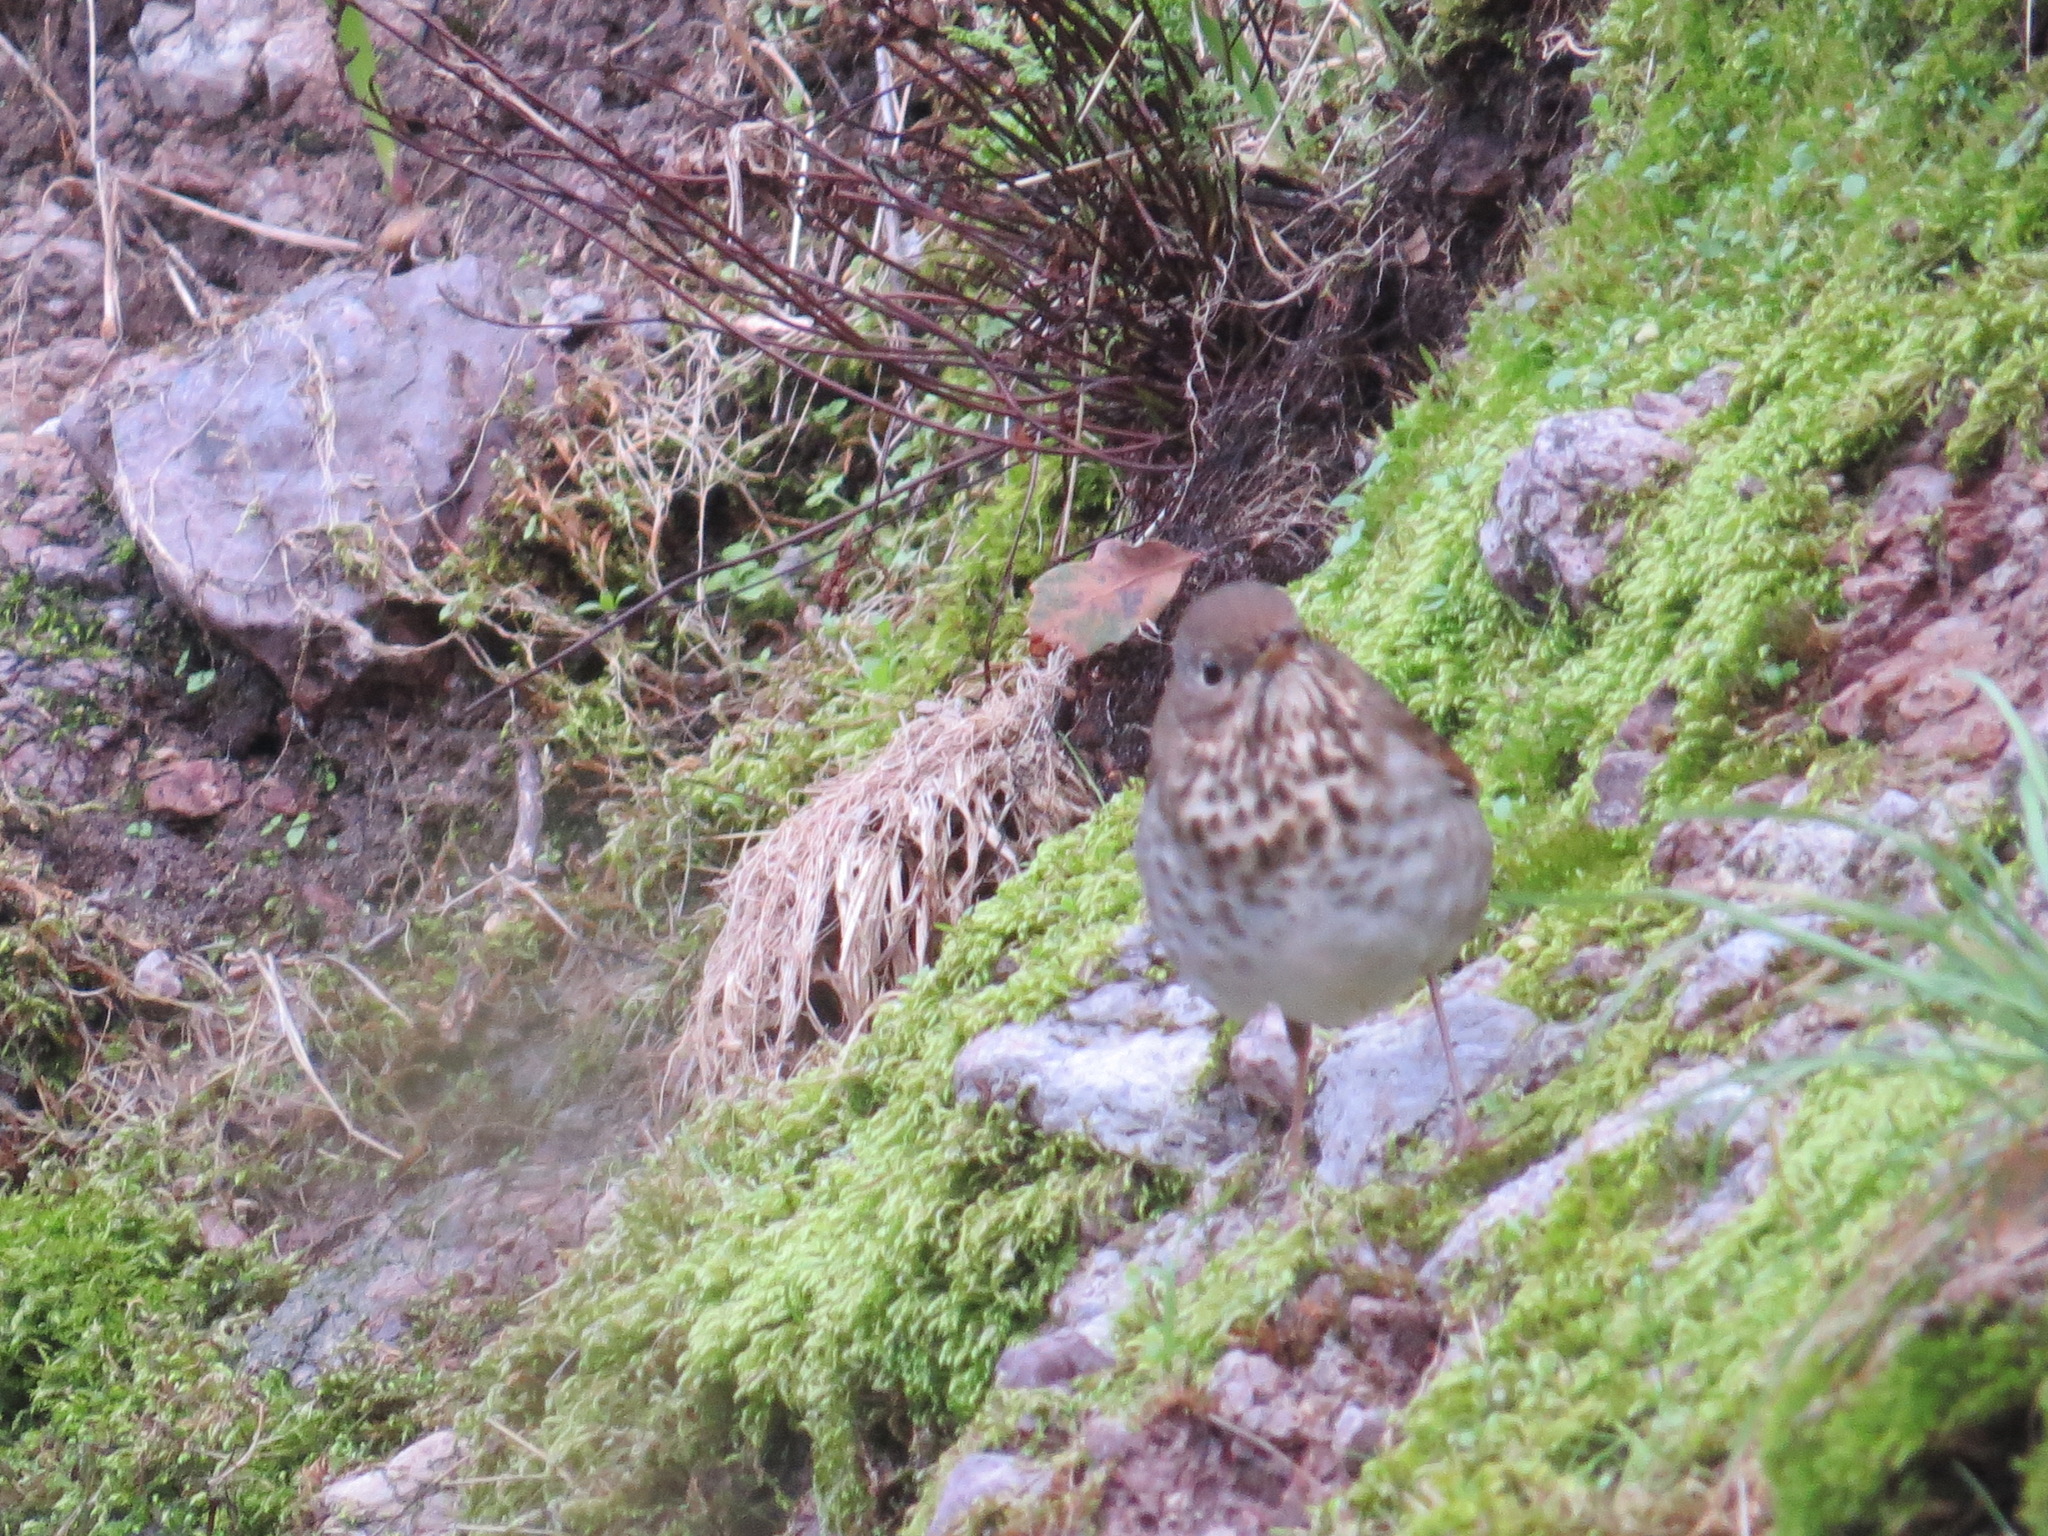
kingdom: Animalia
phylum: Chordata
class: Aves
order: Passeriformes
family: Turdidae
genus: Catharus
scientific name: Catharus guttatus
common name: Hermit thrush
